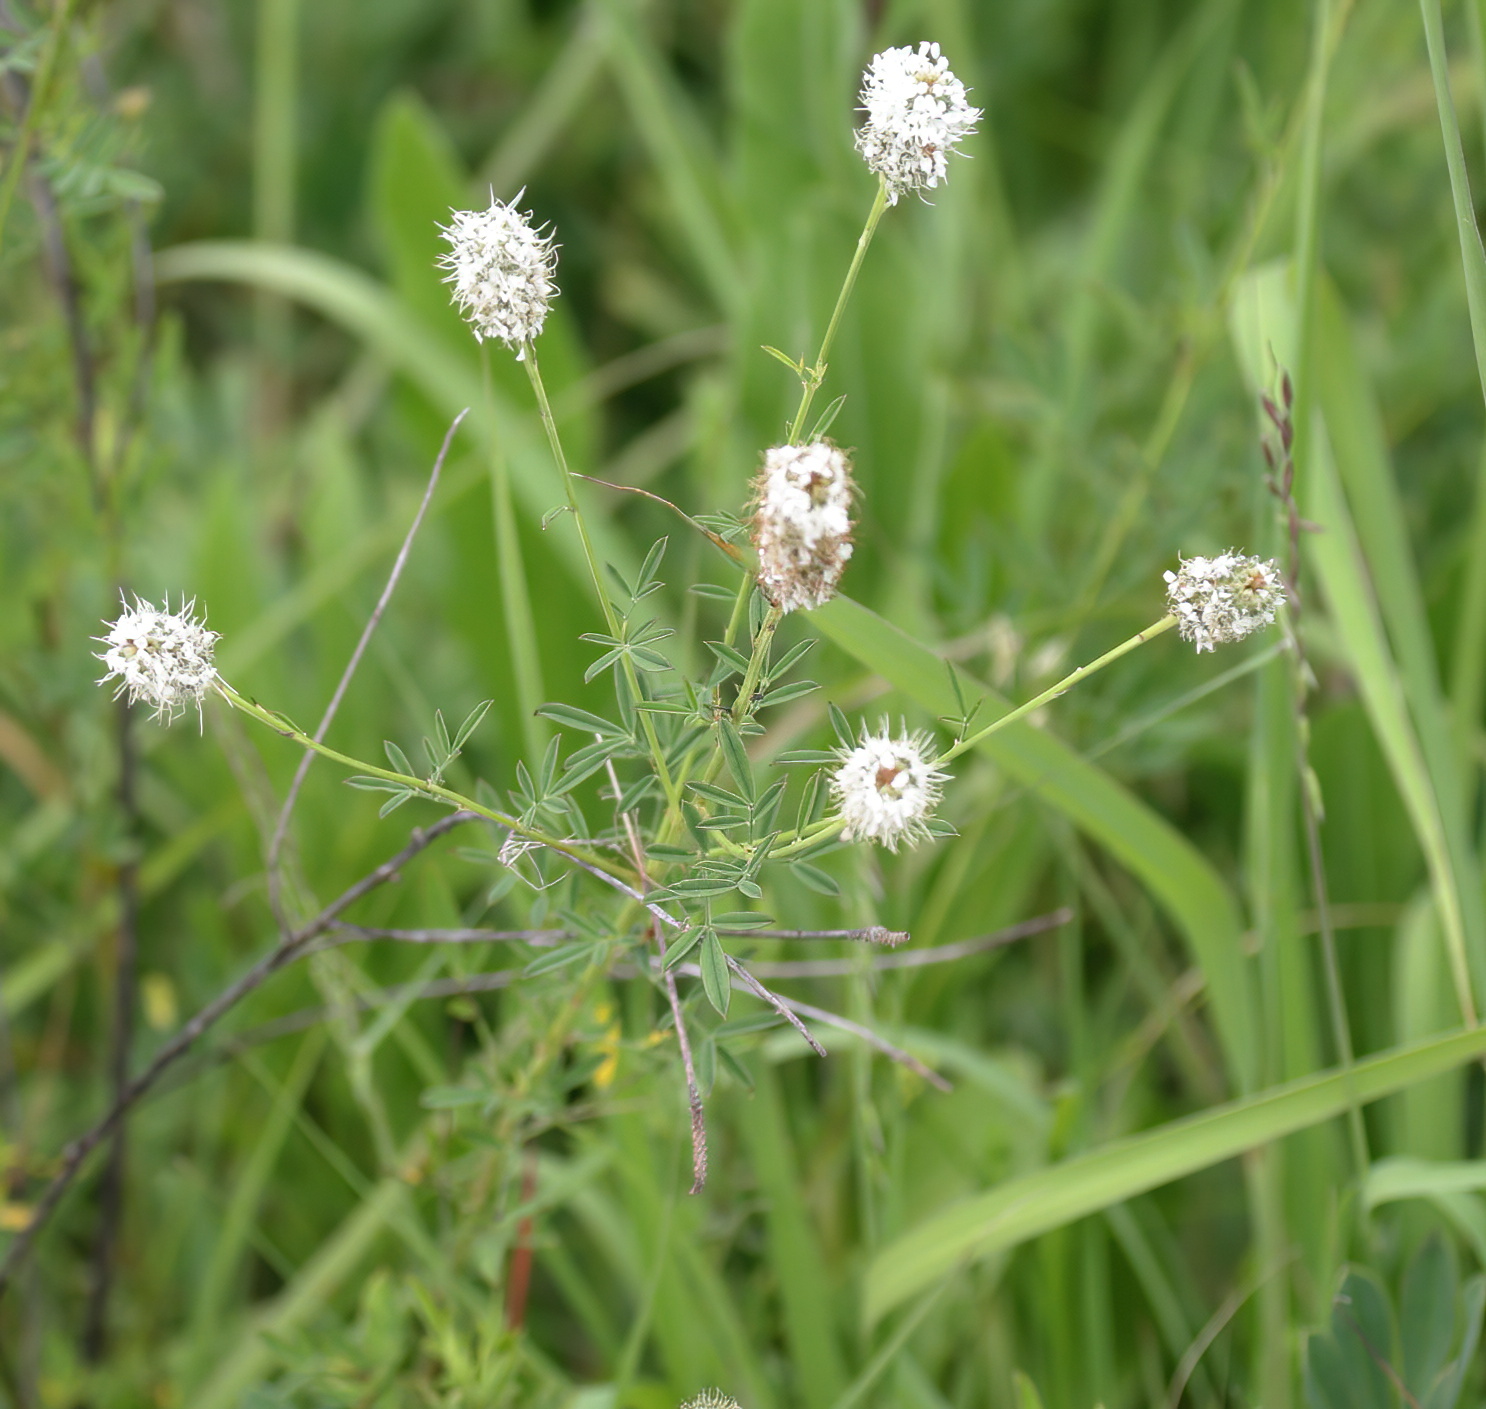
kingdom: Plantae
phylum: Tracheophyta
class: Magnoliopsida
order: Fabales
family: Fabaceae
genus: Dalea
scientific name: Dalea candida
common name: White prairie-clover
